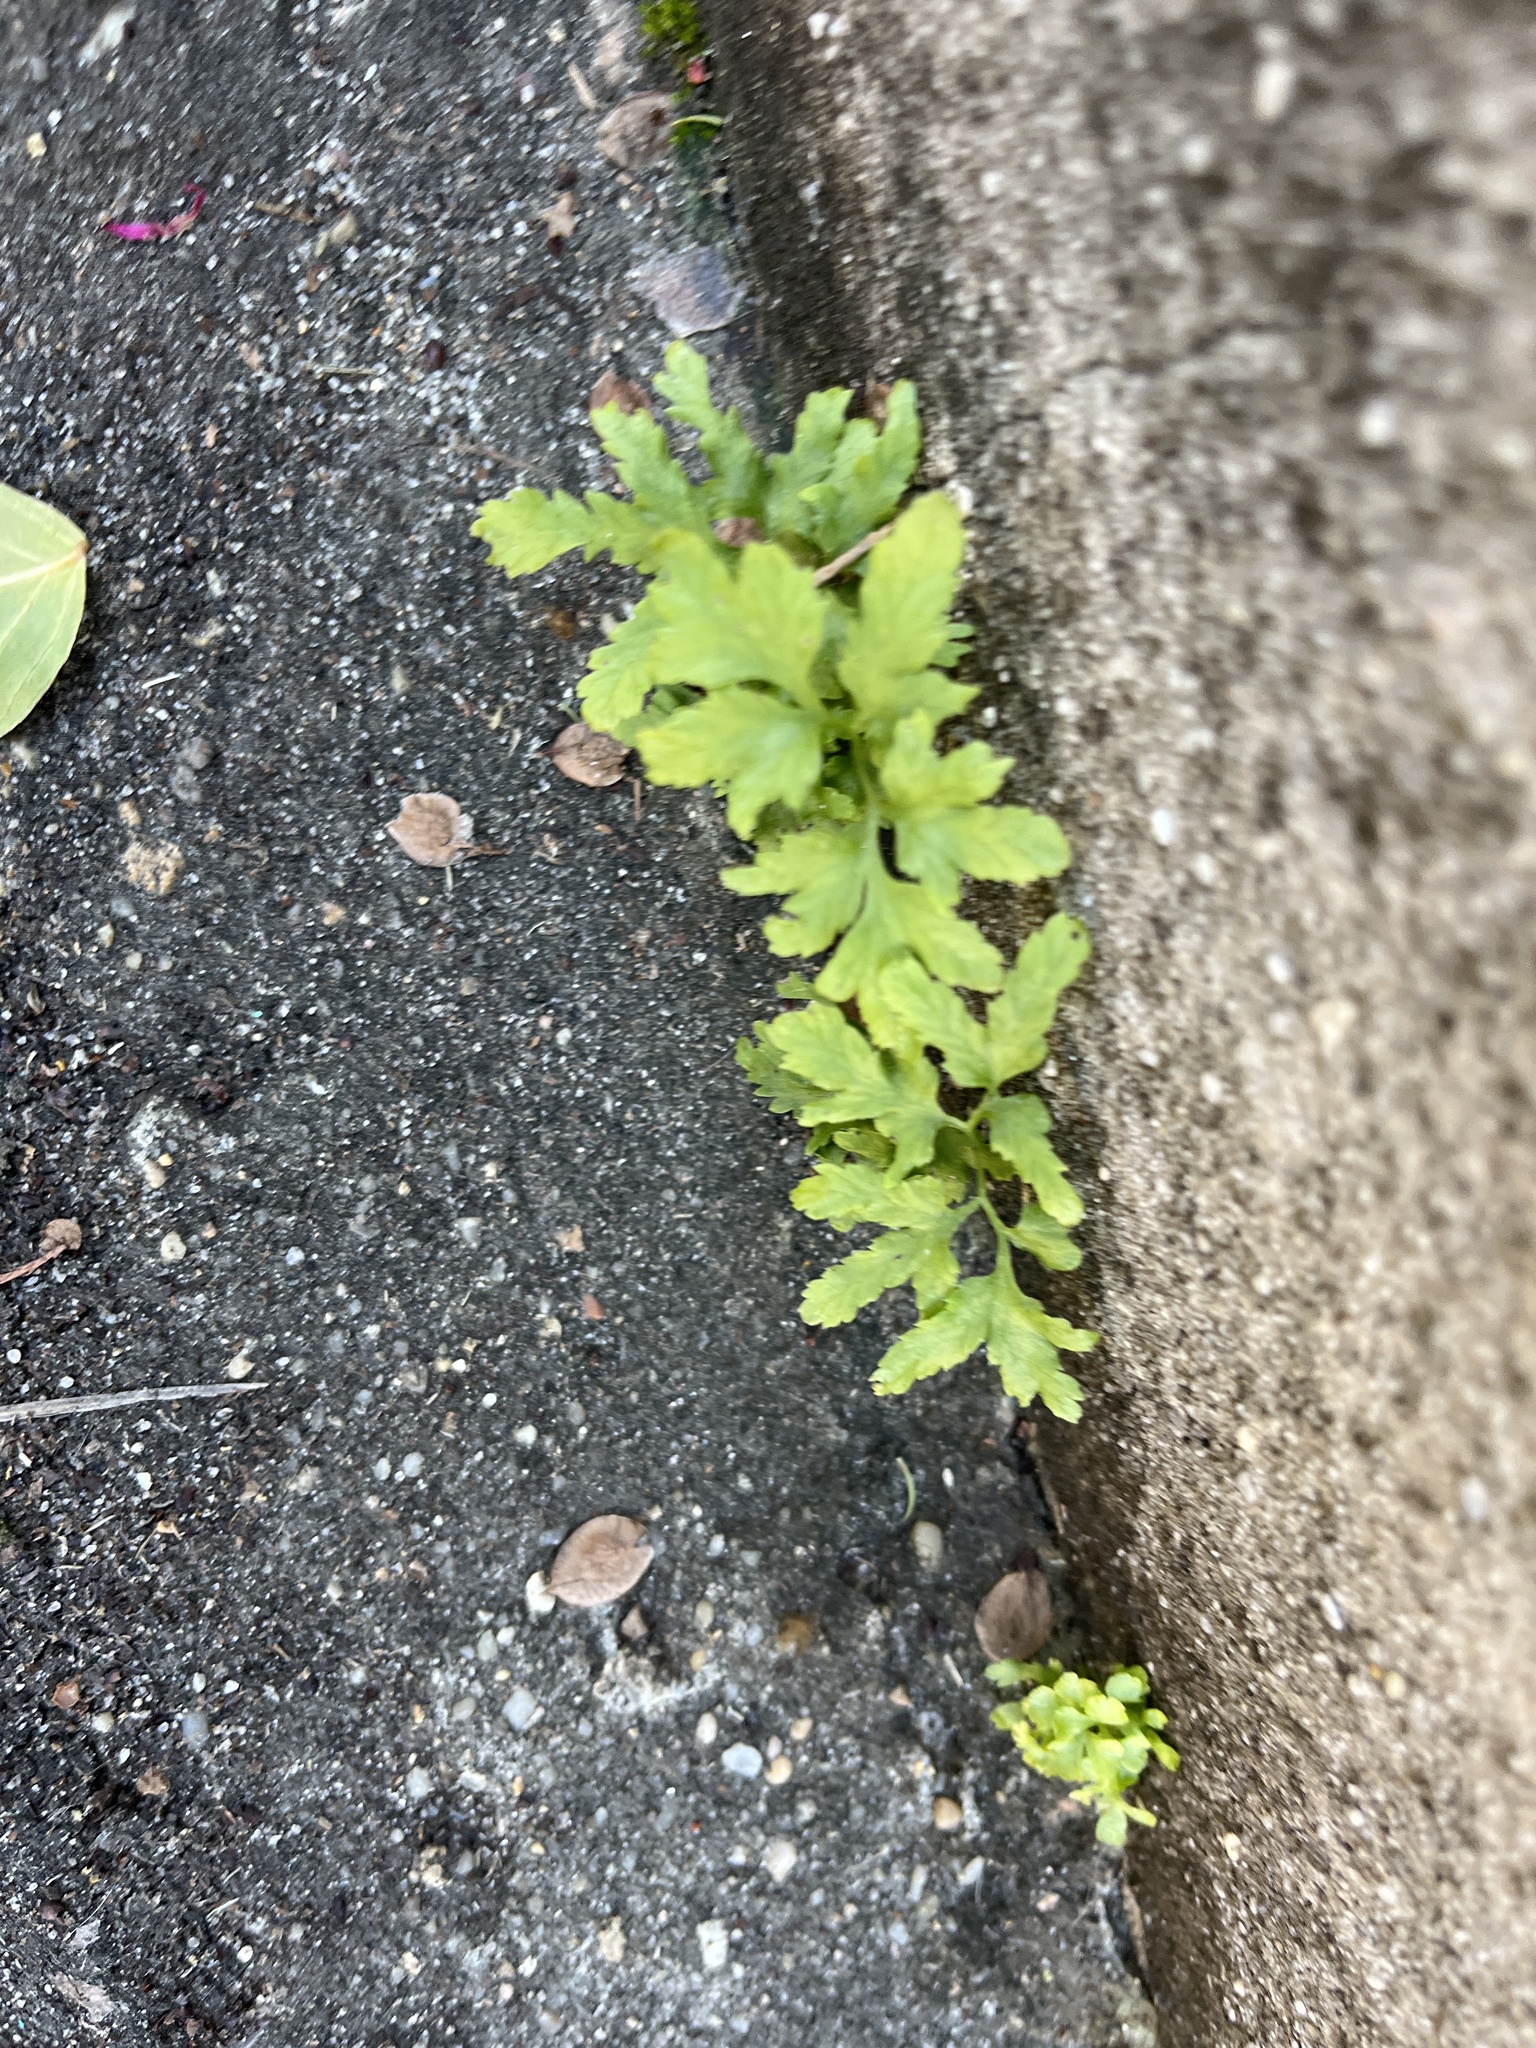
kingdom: Plantae
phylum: Tracheophyta
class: Polypodiopsida
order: Schizaeales
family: Lygodiaceae
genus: Lygodium
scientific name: Lygodium japonicum
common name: Japanese climbing fern
